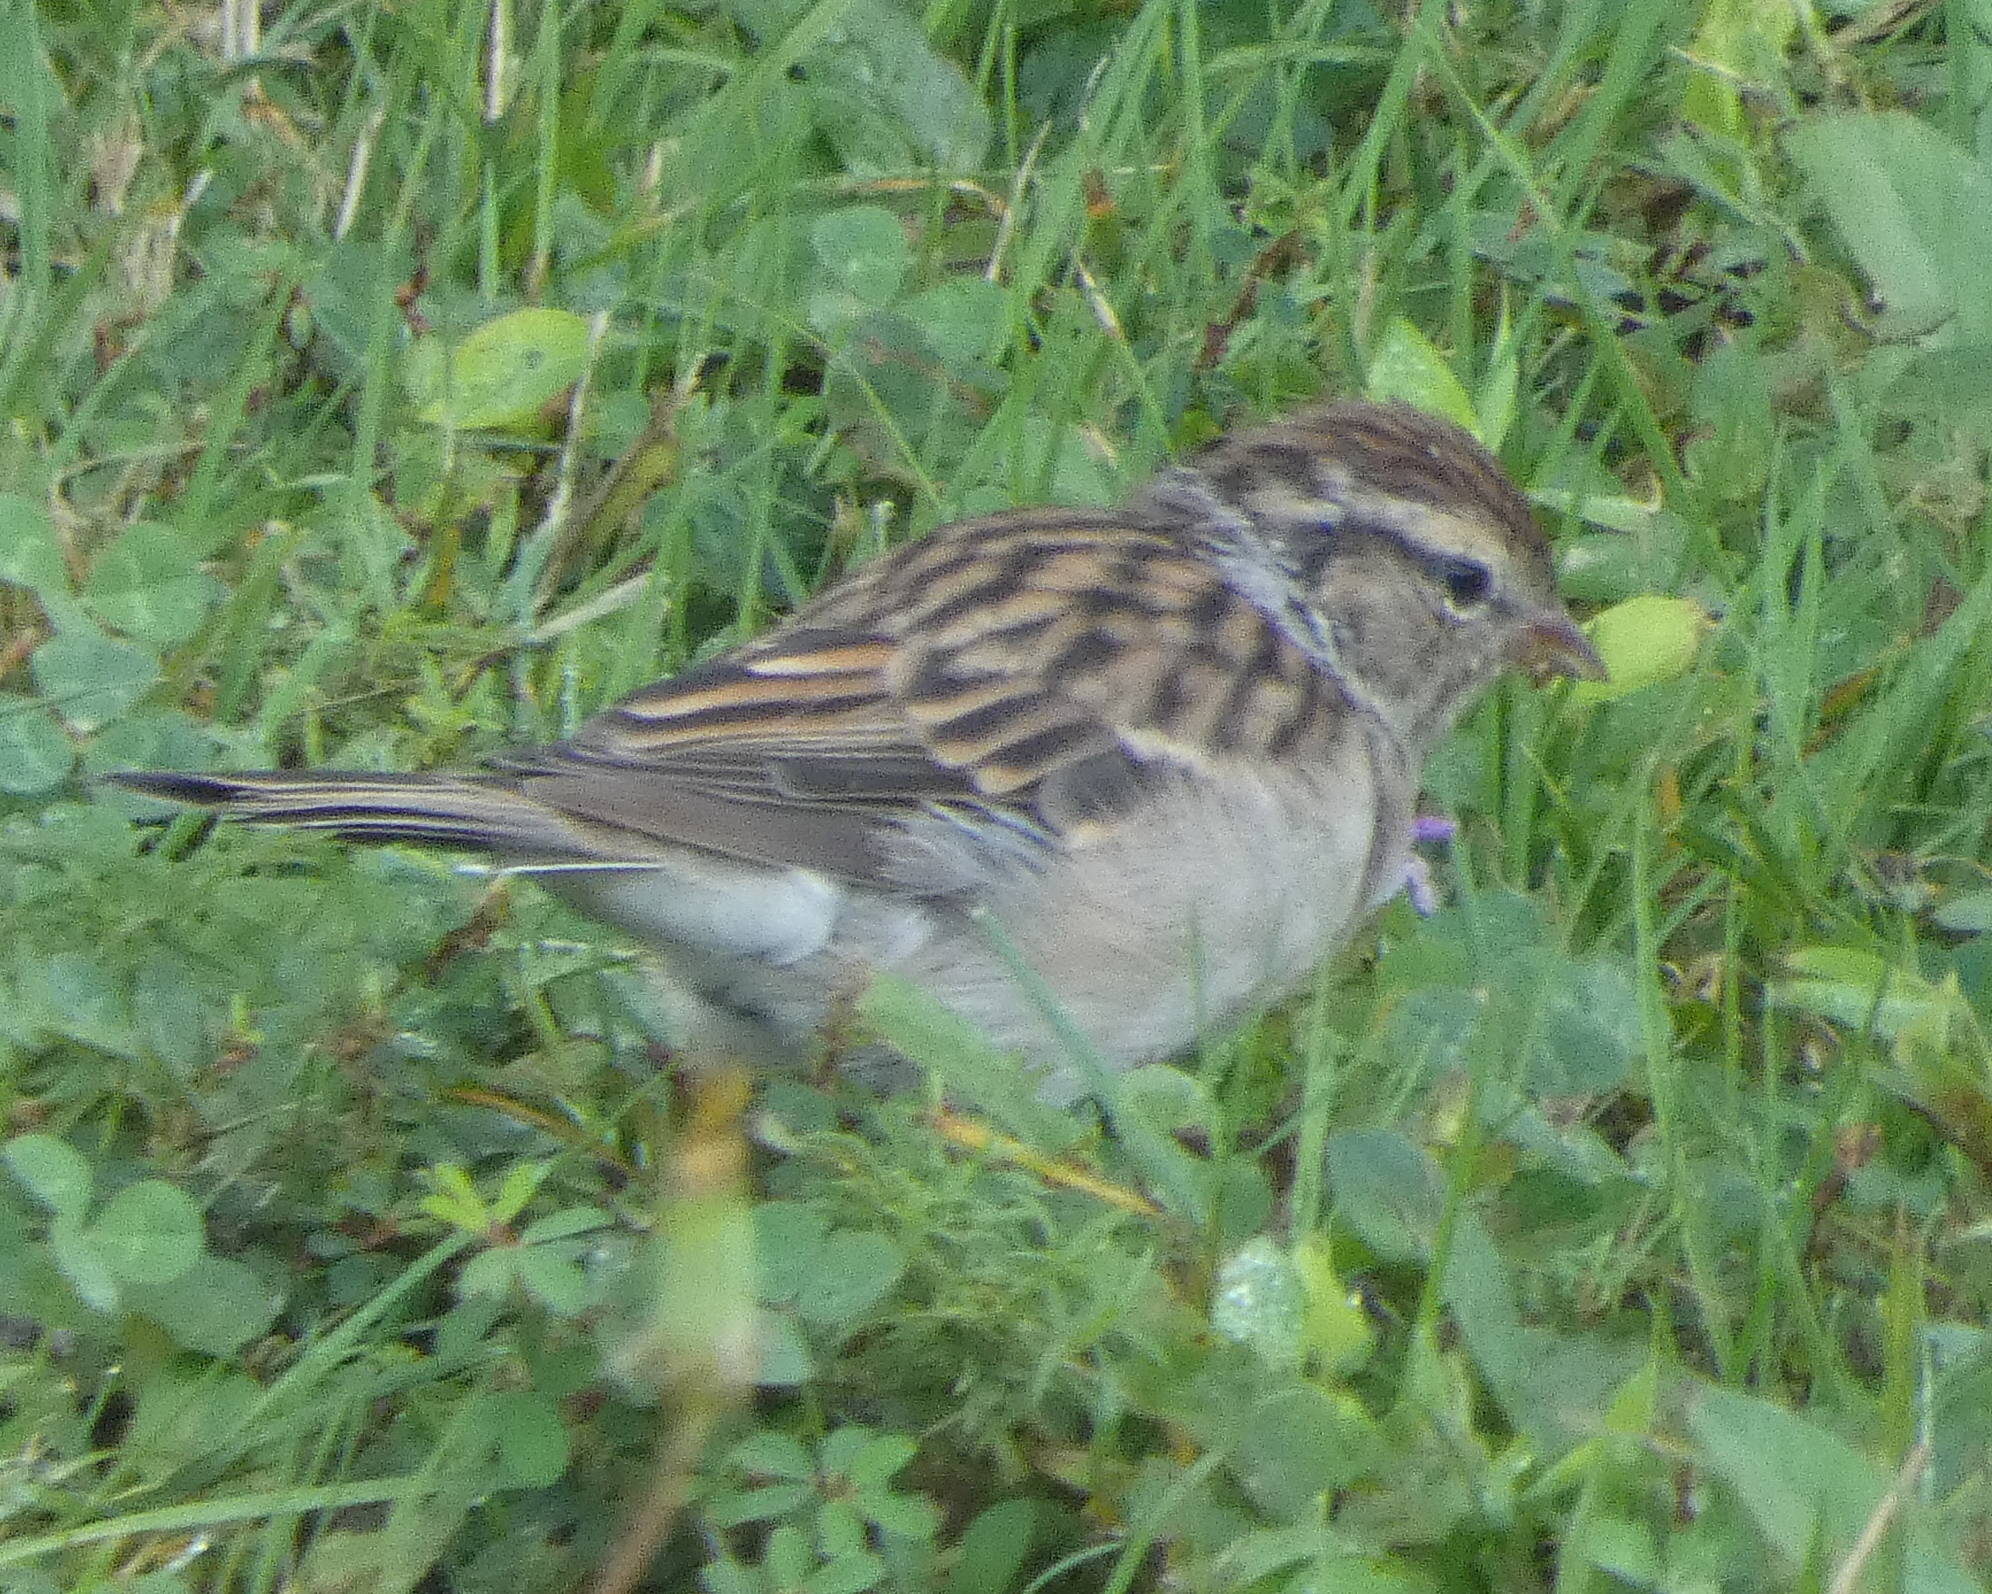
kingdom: Animalia
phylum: Chordata
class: Aves
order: Passeriformes
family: Passerellidae
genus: Spizella
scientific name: Spizella passerina
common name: Chipping sparrow
